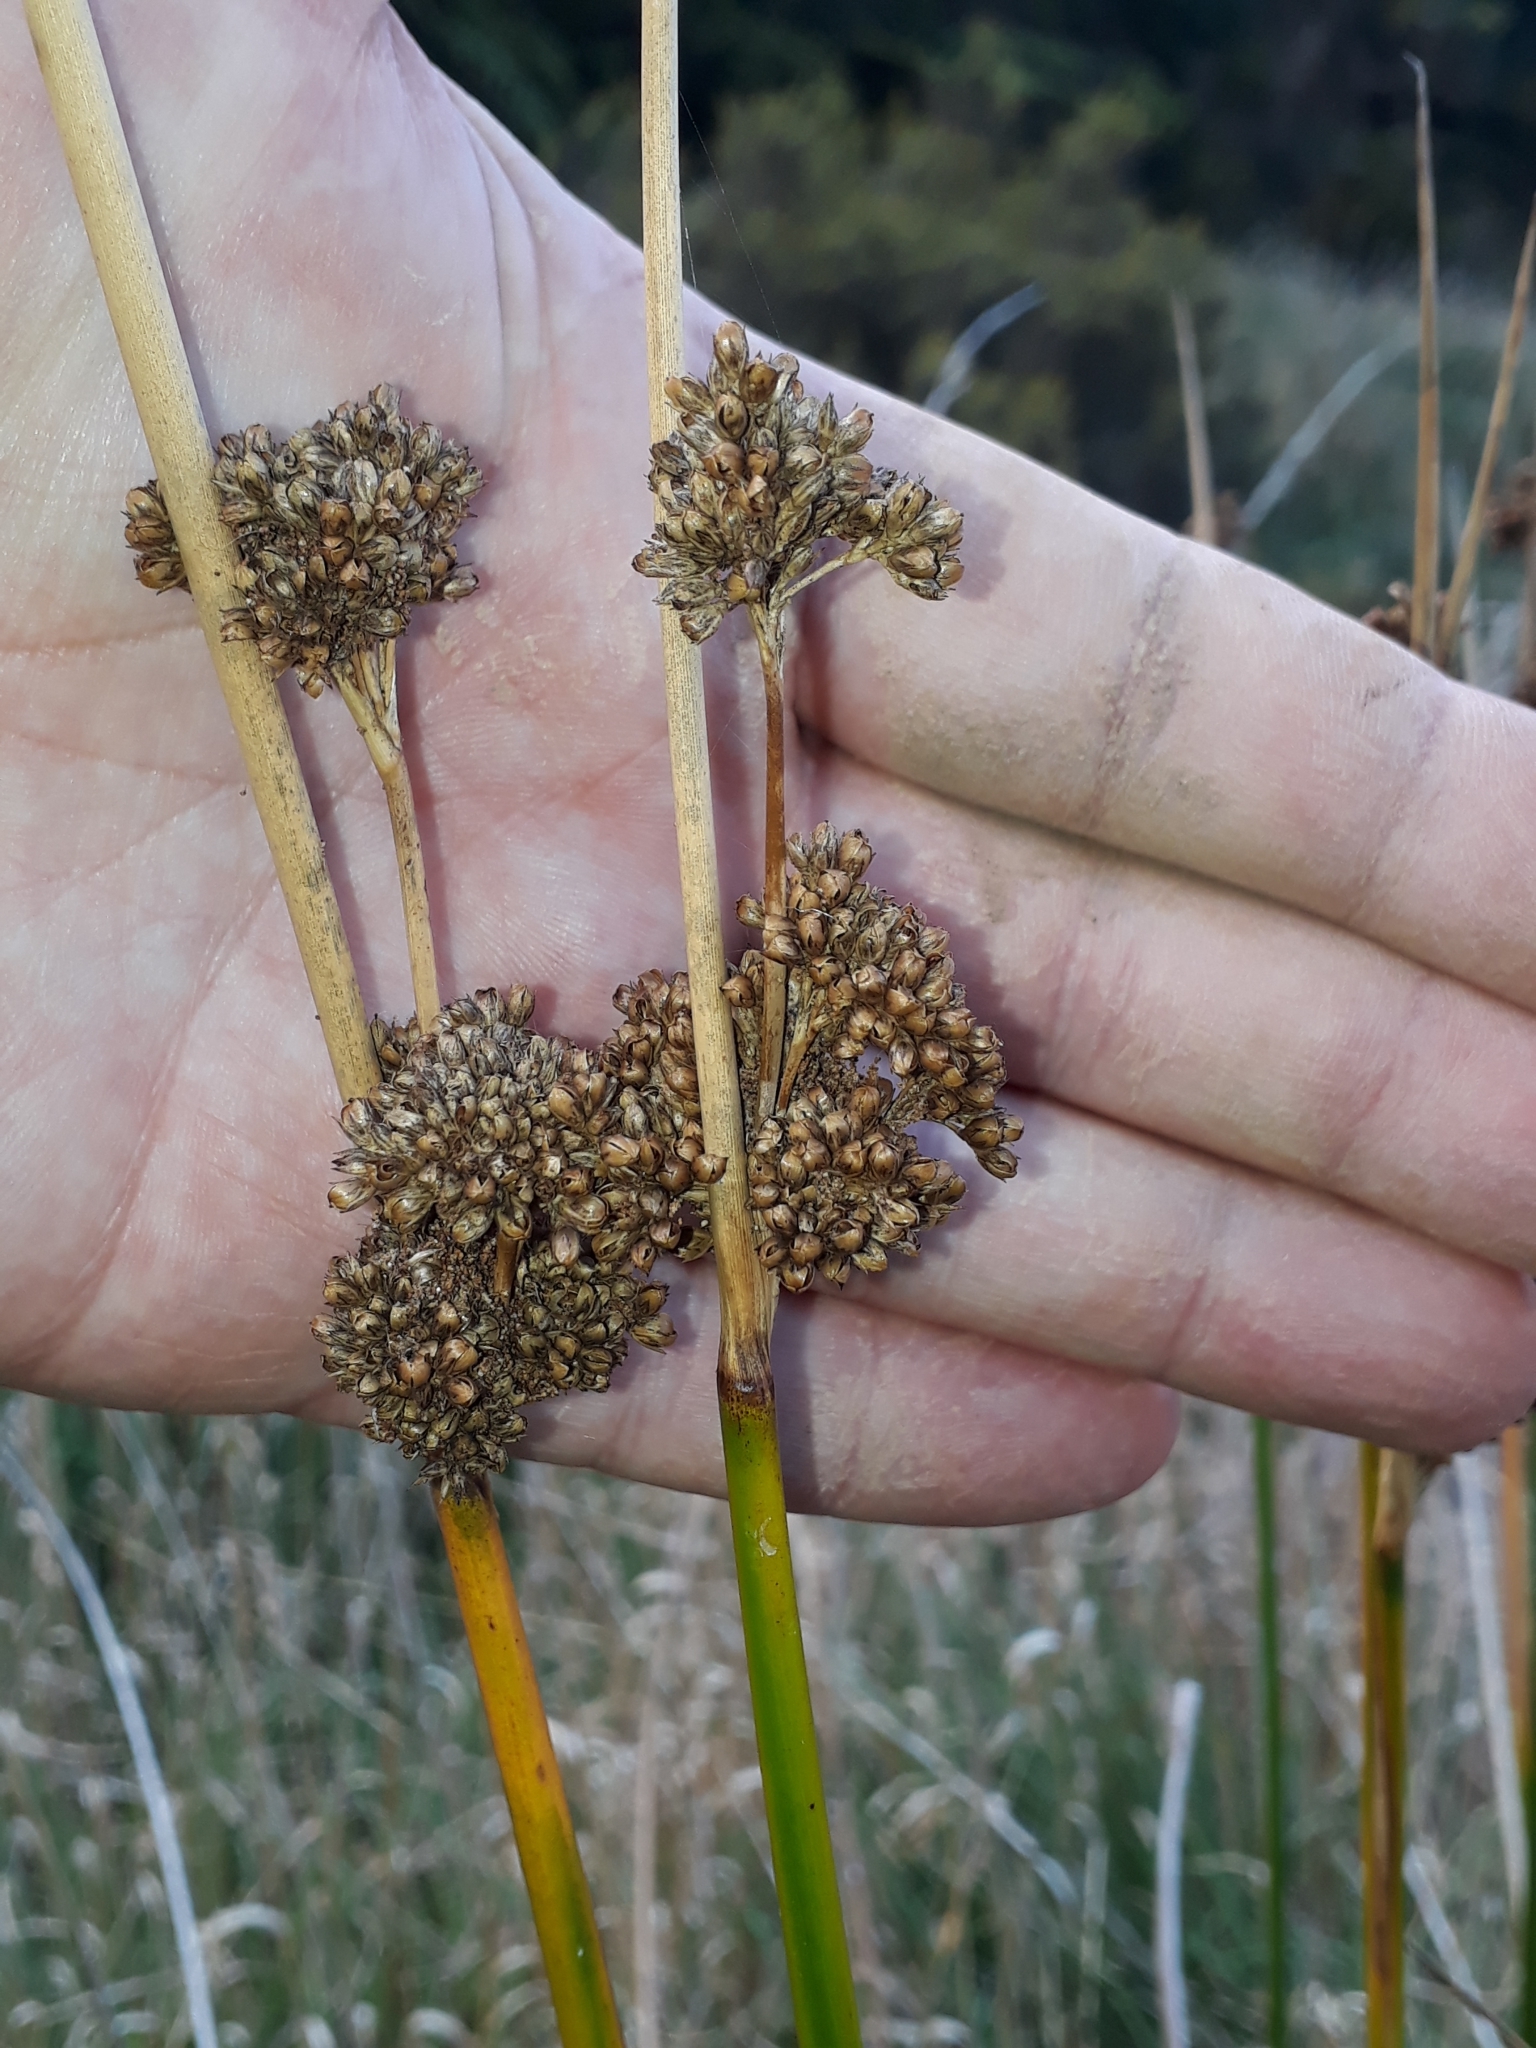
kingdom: Plantae
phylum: Tracheophyta
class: Liliopsida
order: Poales
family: Juncaceae
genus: Juncus
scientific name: Juncus pallidus
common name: Great soft-rush
